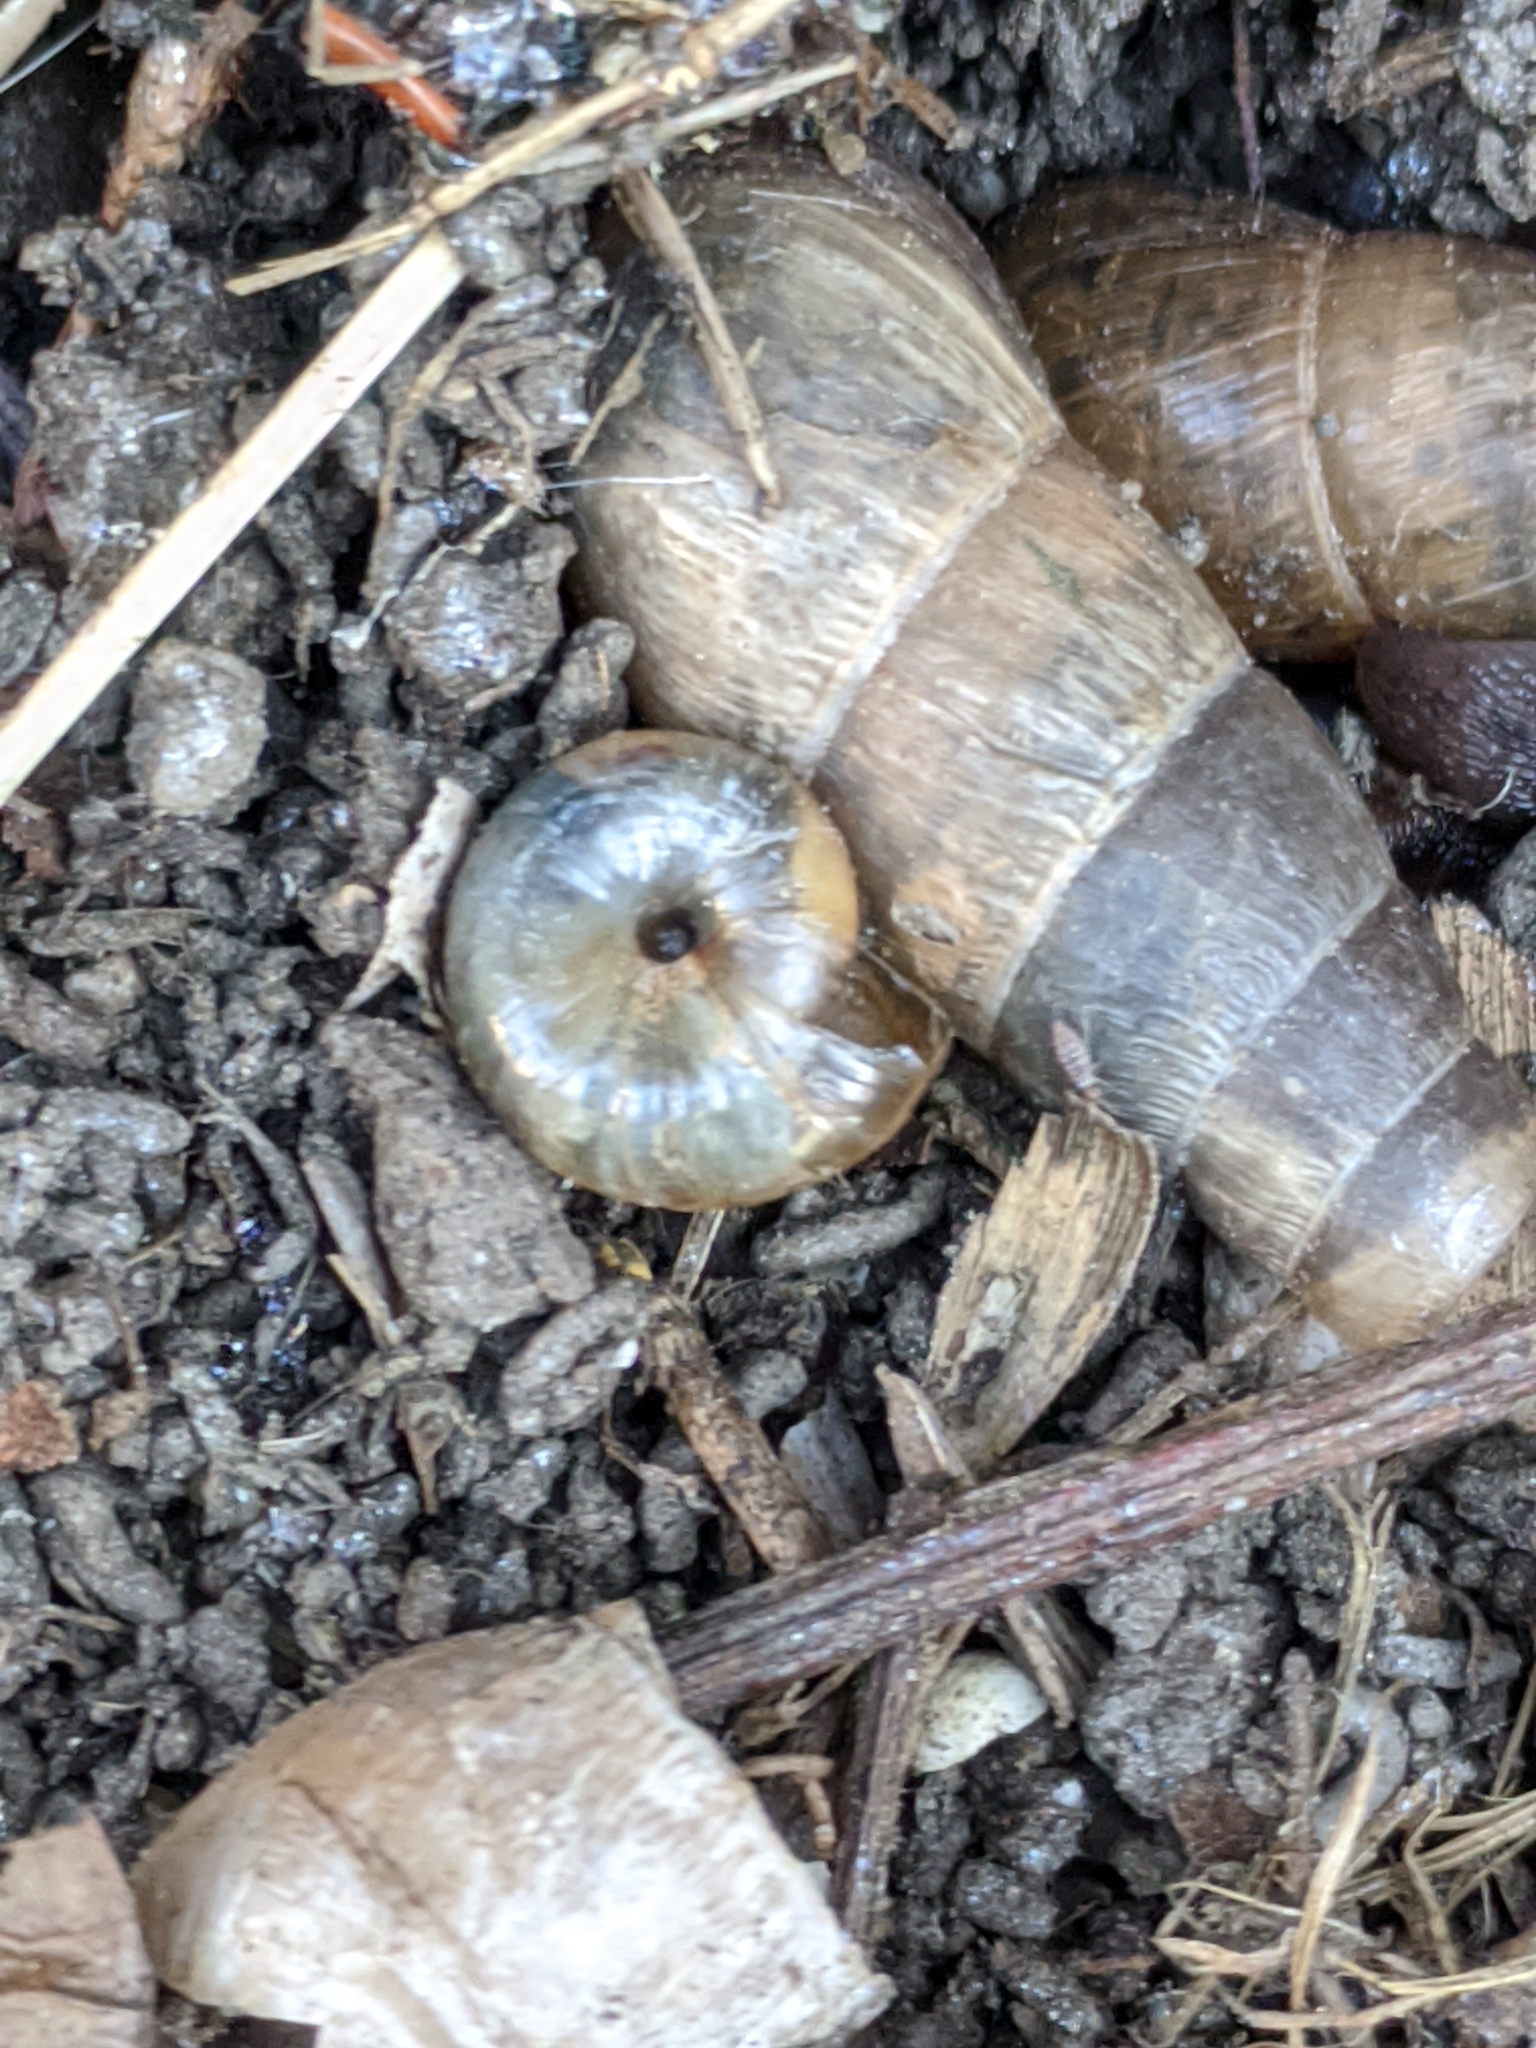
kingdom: Animalia
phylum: Mollusca
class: Gastropoda
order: Stylommatophora
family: Achatinidae
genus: Rumina
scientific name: Rumina decollata
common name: Decollate snail
